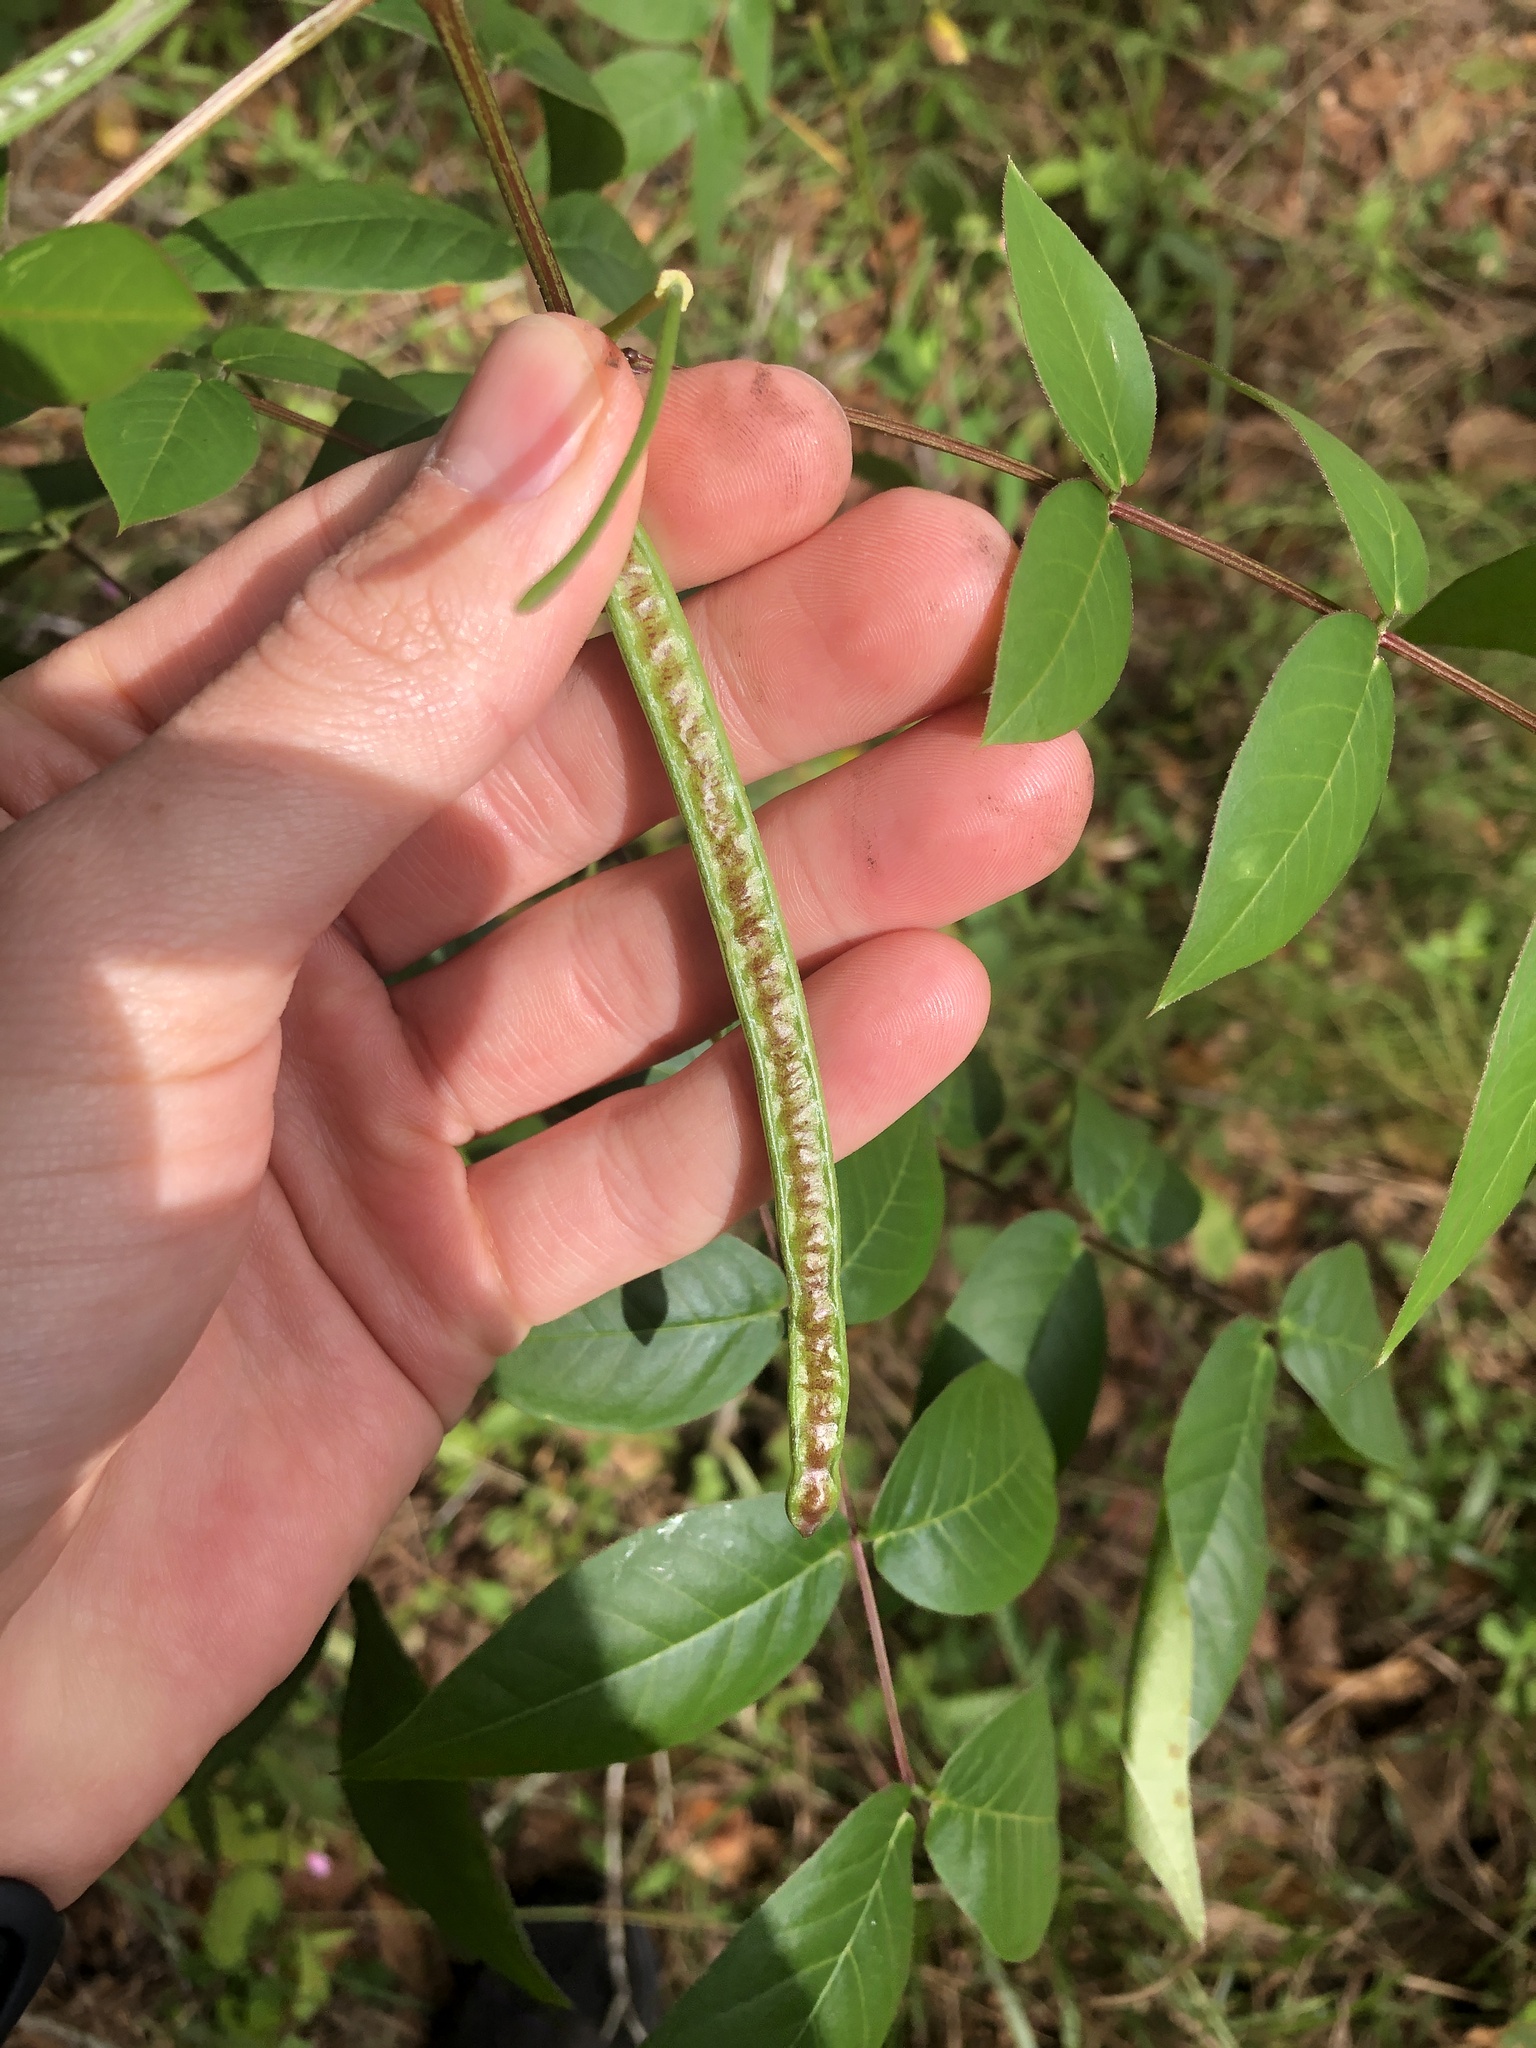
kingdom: Plantae
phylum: Tracheophyta
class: Magnoliopsida
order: Fabales
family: Fabaceae
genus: Senna
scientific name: Senna occidentalis
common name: Septicweed
